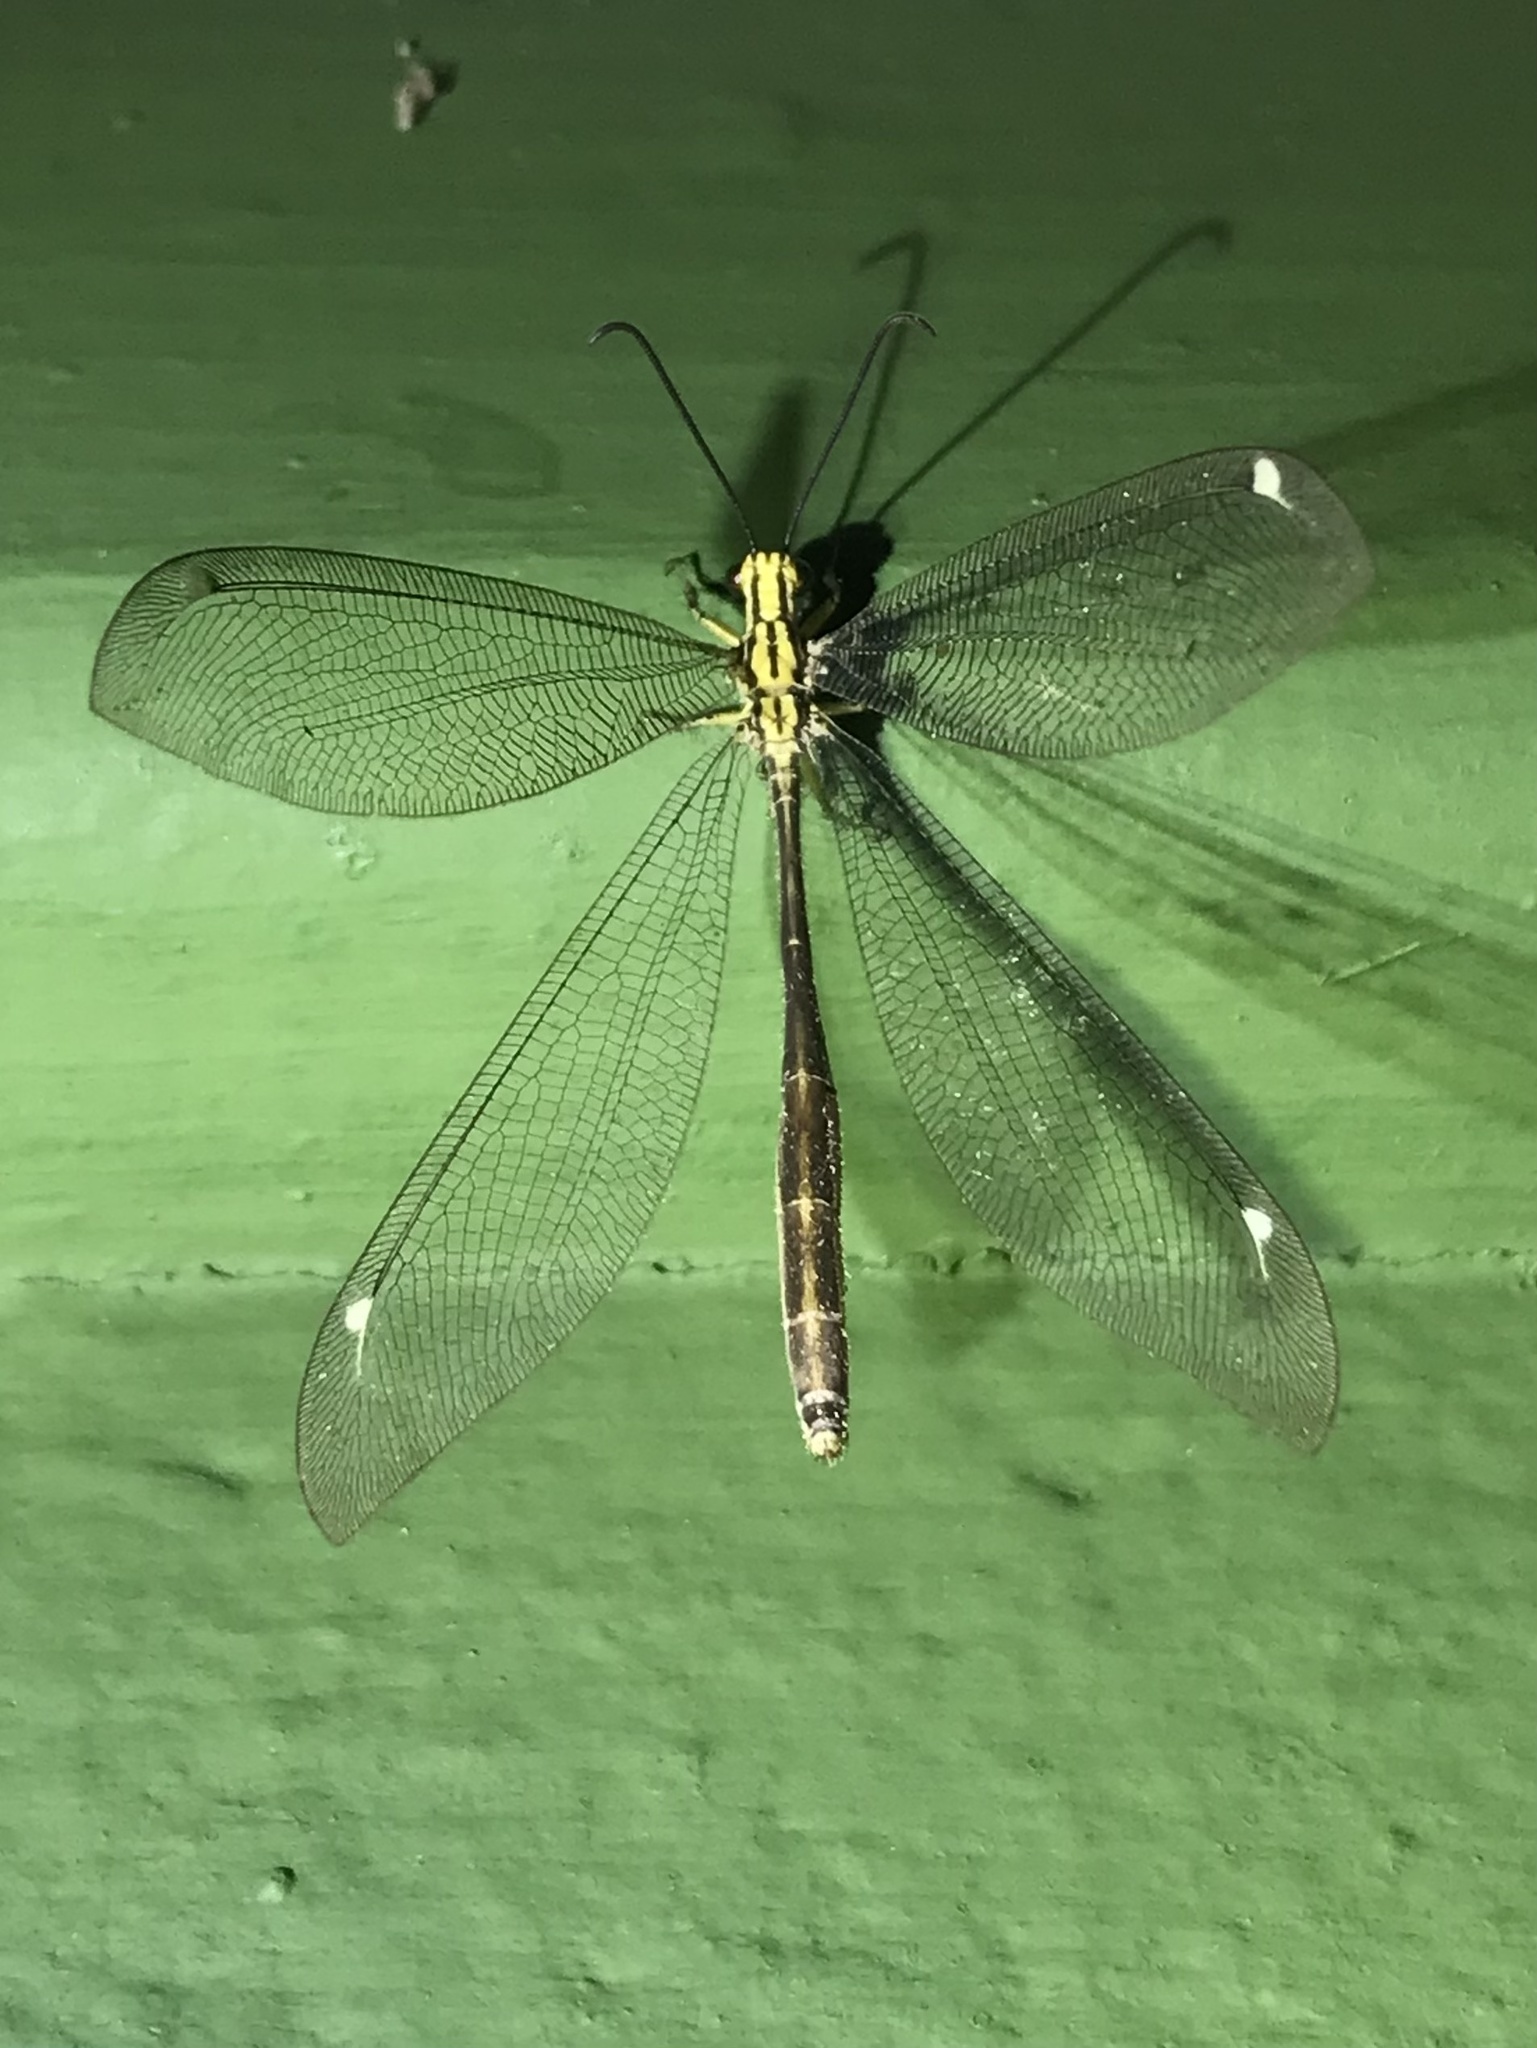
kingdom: Animalia
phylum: Arthropoda
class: Insecta
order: Neuroptera
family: Myrmeleontidae
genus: Banyutus
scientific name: Banyutus lethalis
